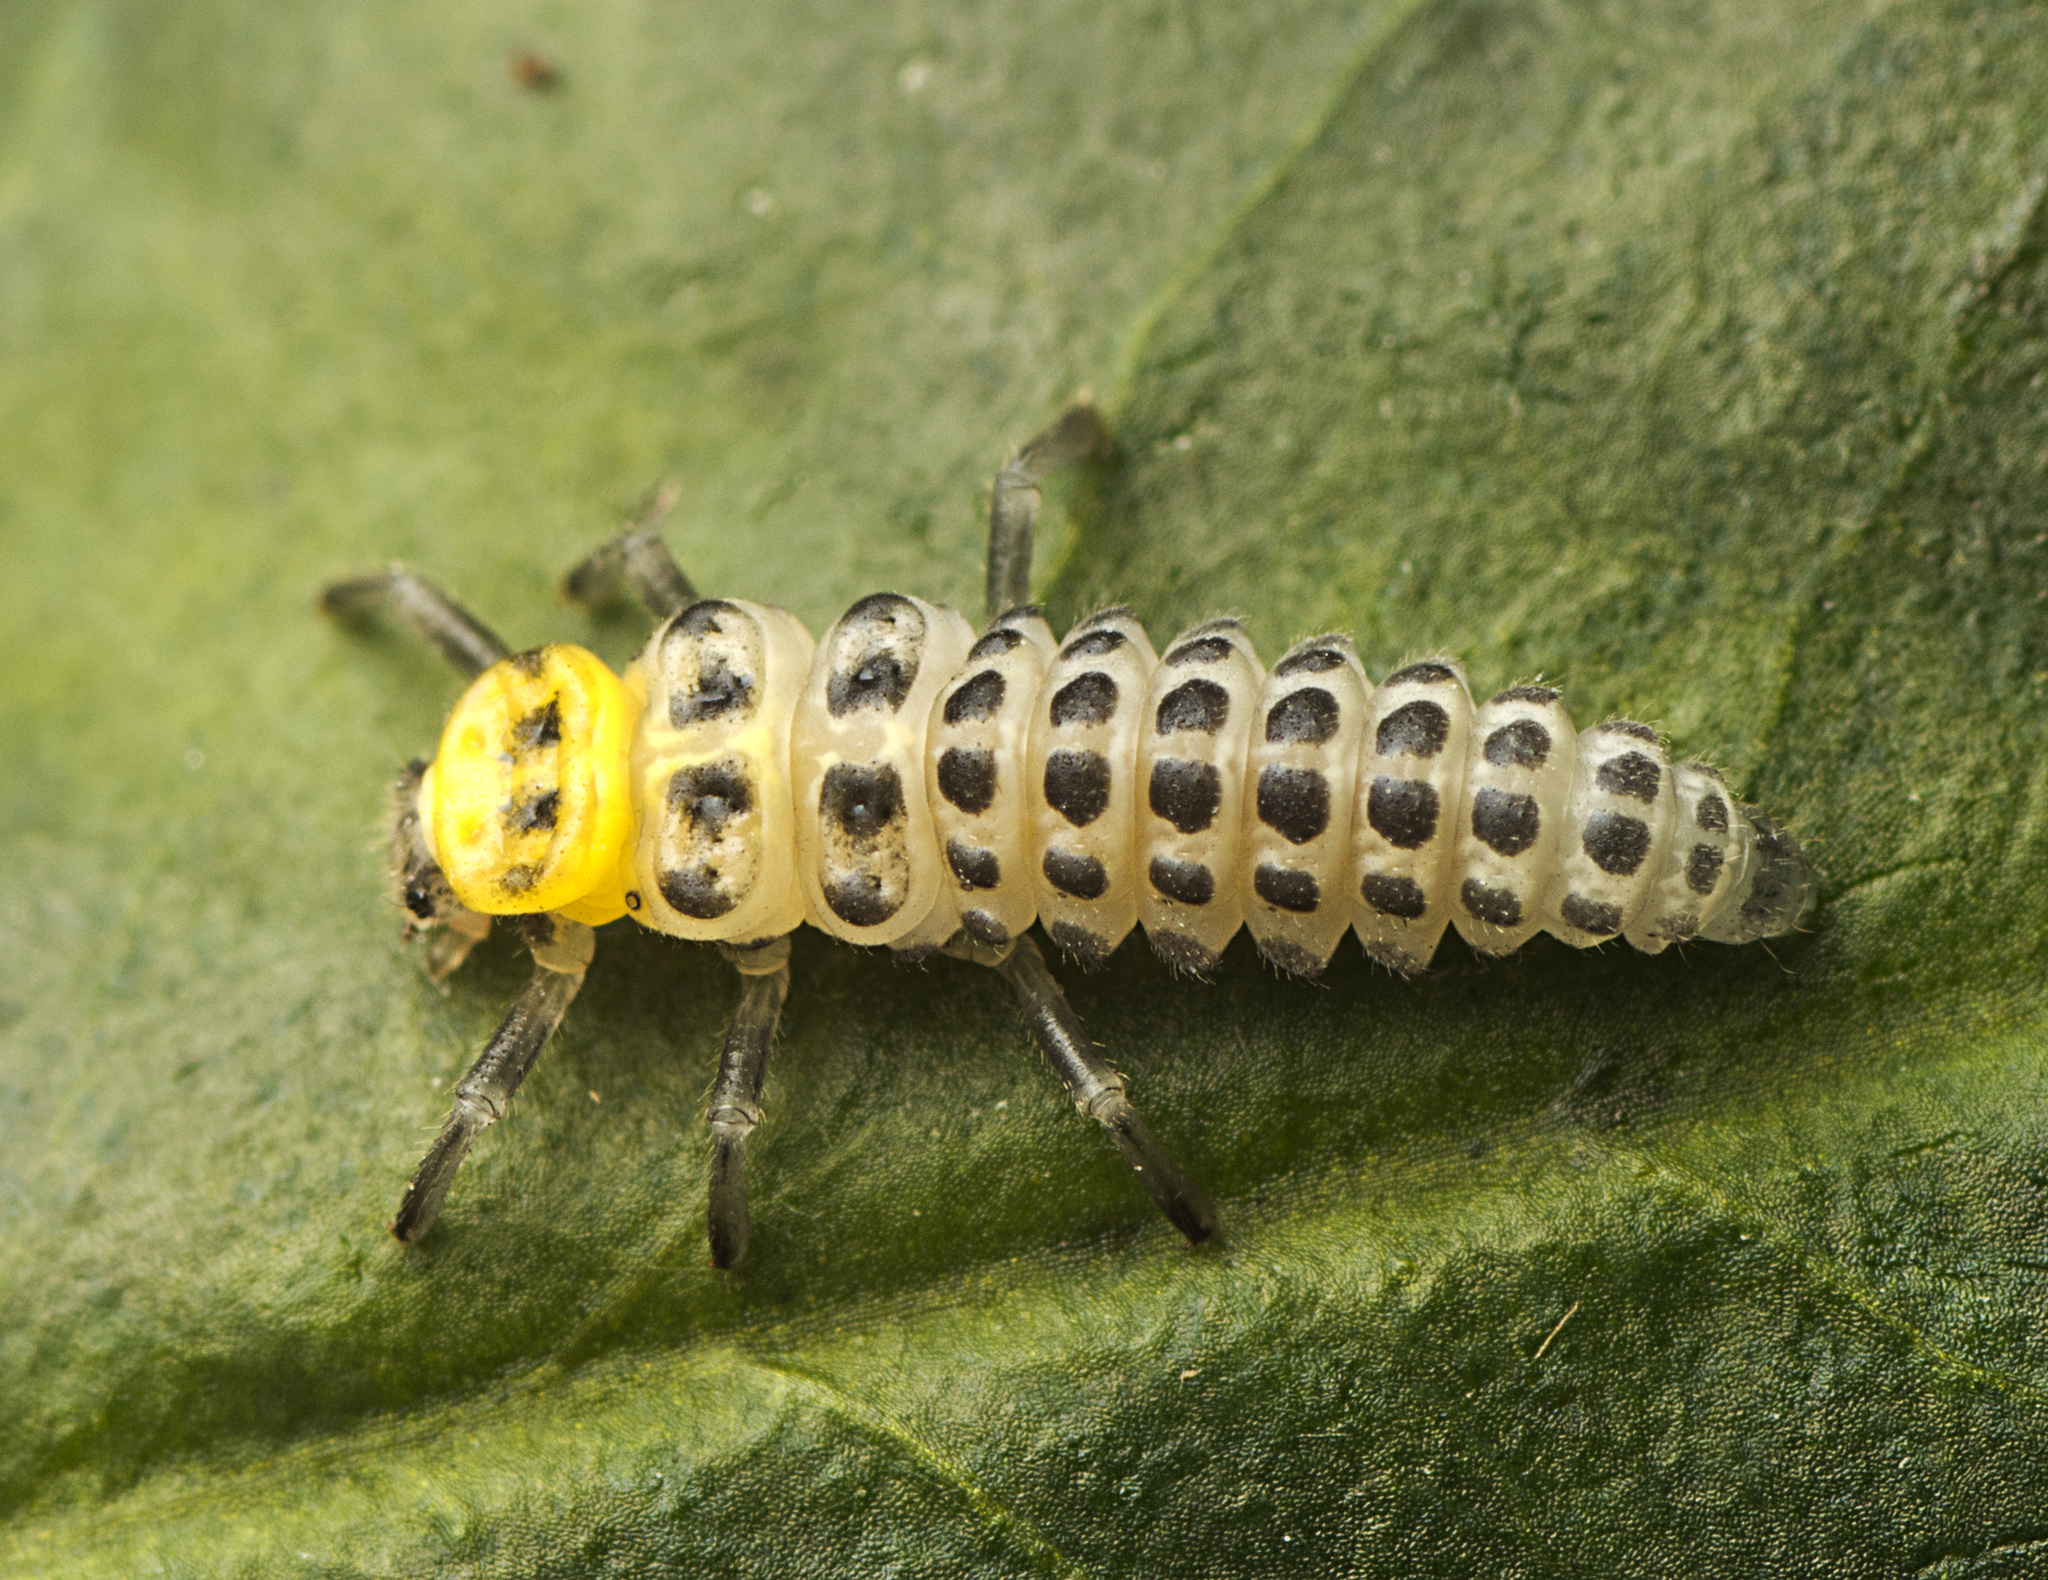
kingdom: Animalia
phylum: Arthropoda
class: Insecta
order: Coleoptera
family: Coccinellidae
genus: Illeis
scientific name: Illeis galbula
